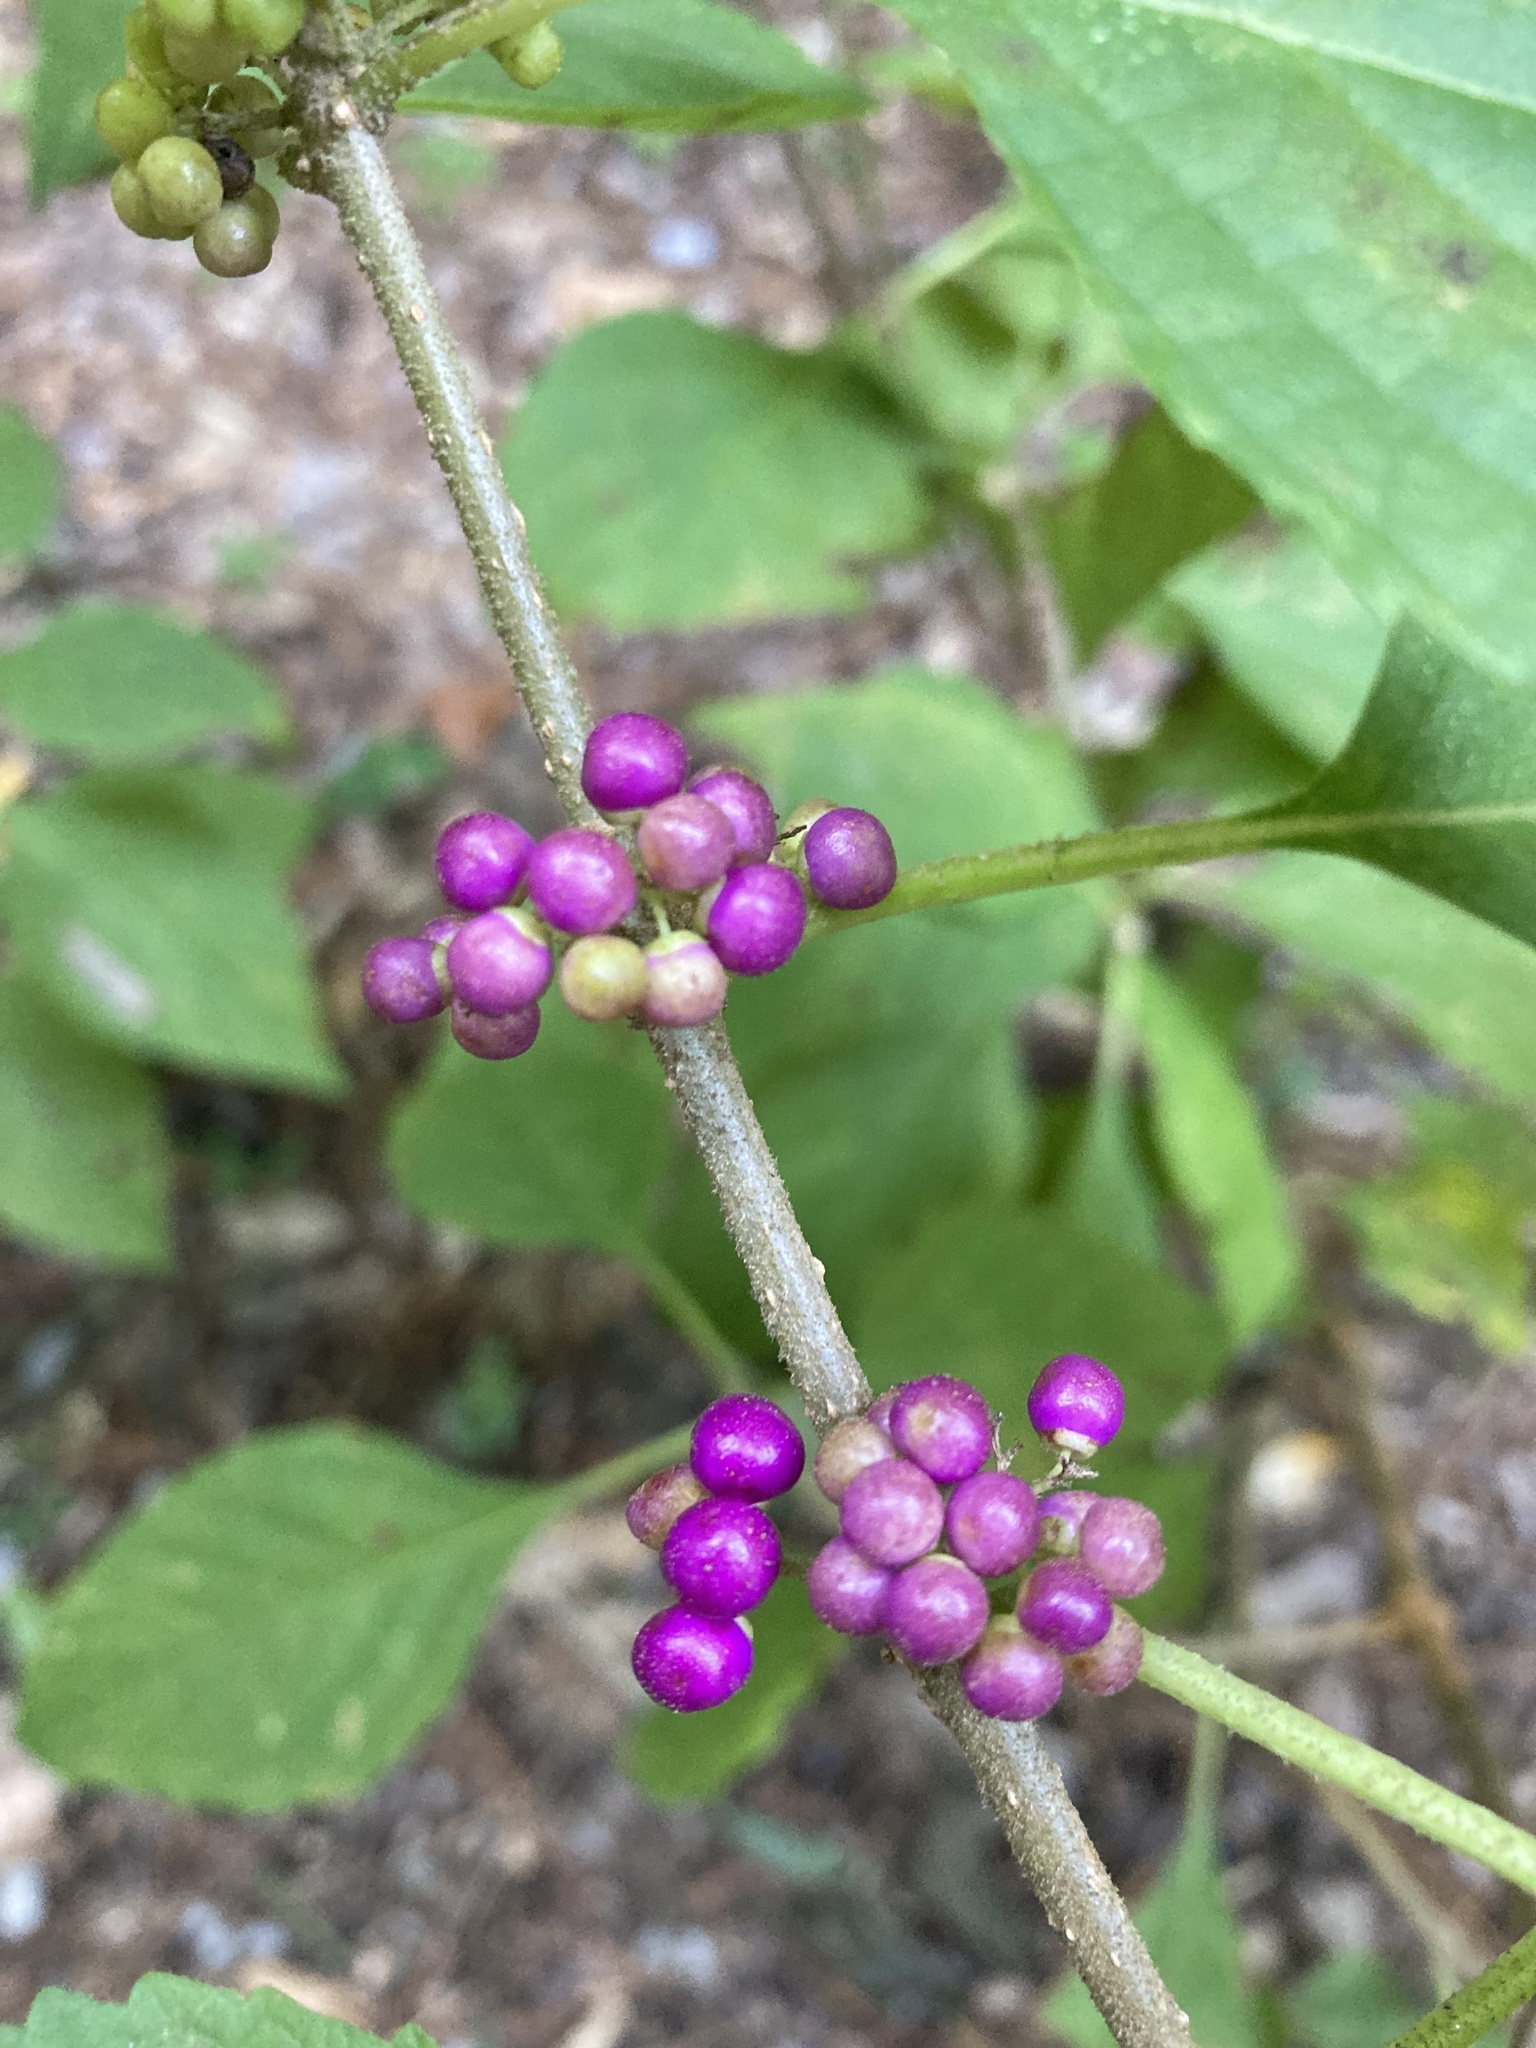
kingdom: Plantae
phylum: Tracheophyta
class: Magnoliopsida
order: Lamiales
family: Lamiaceae
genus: Callicarpa
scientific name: Callicarpa americana
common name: American beautyberry
